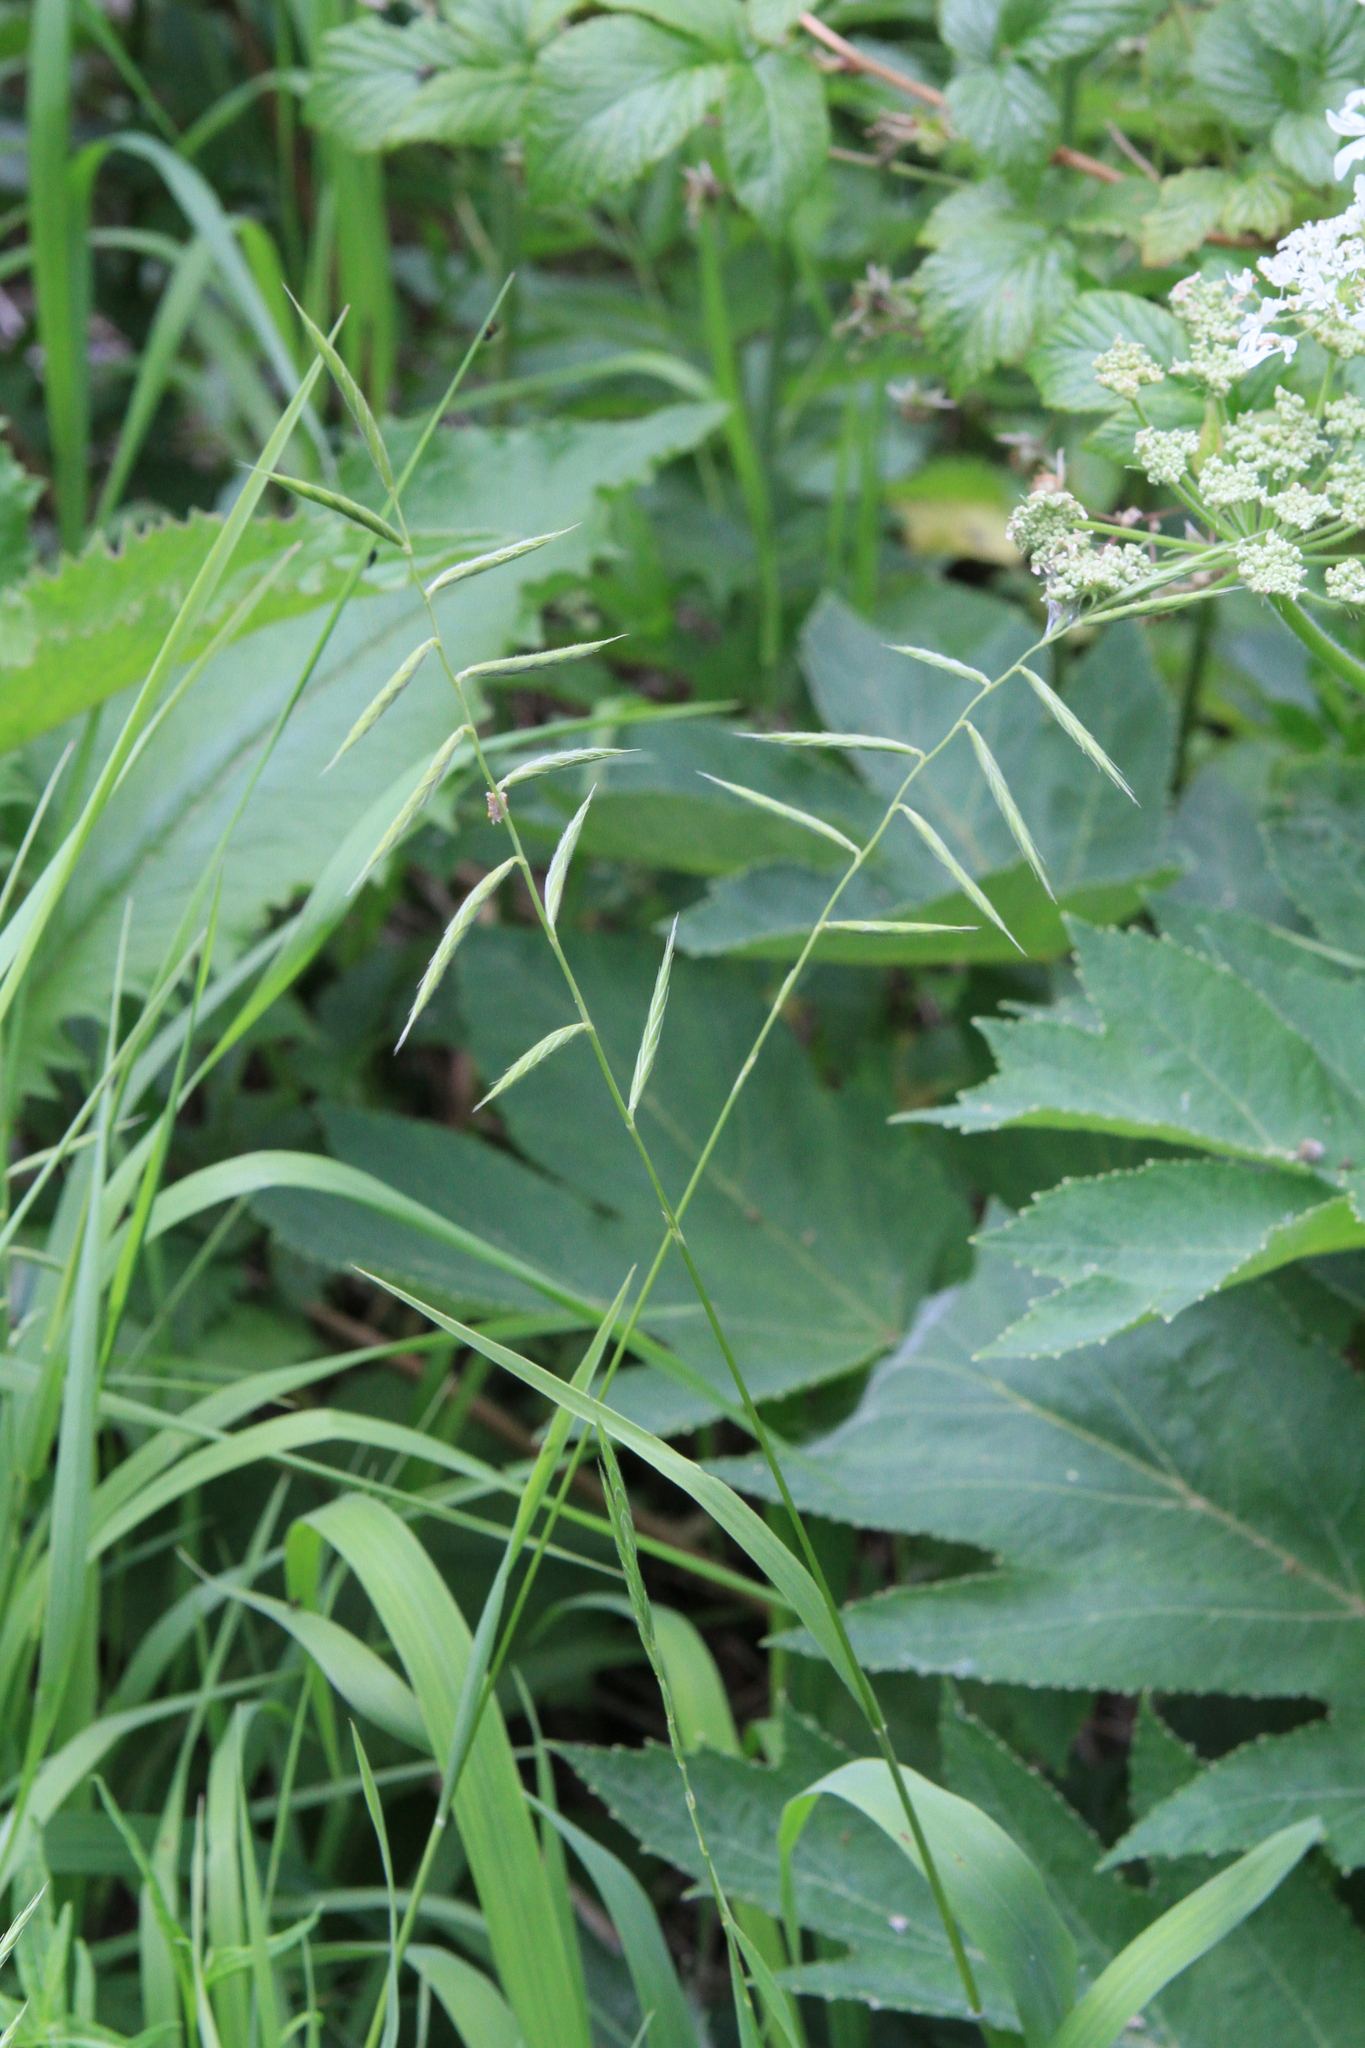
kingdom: Plantae
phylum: Tracheophyta
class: Liliopsida
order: Poales
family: Poaceae
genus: Brachypodium
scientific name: Brachypodium pinnatum
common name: Tor grass
